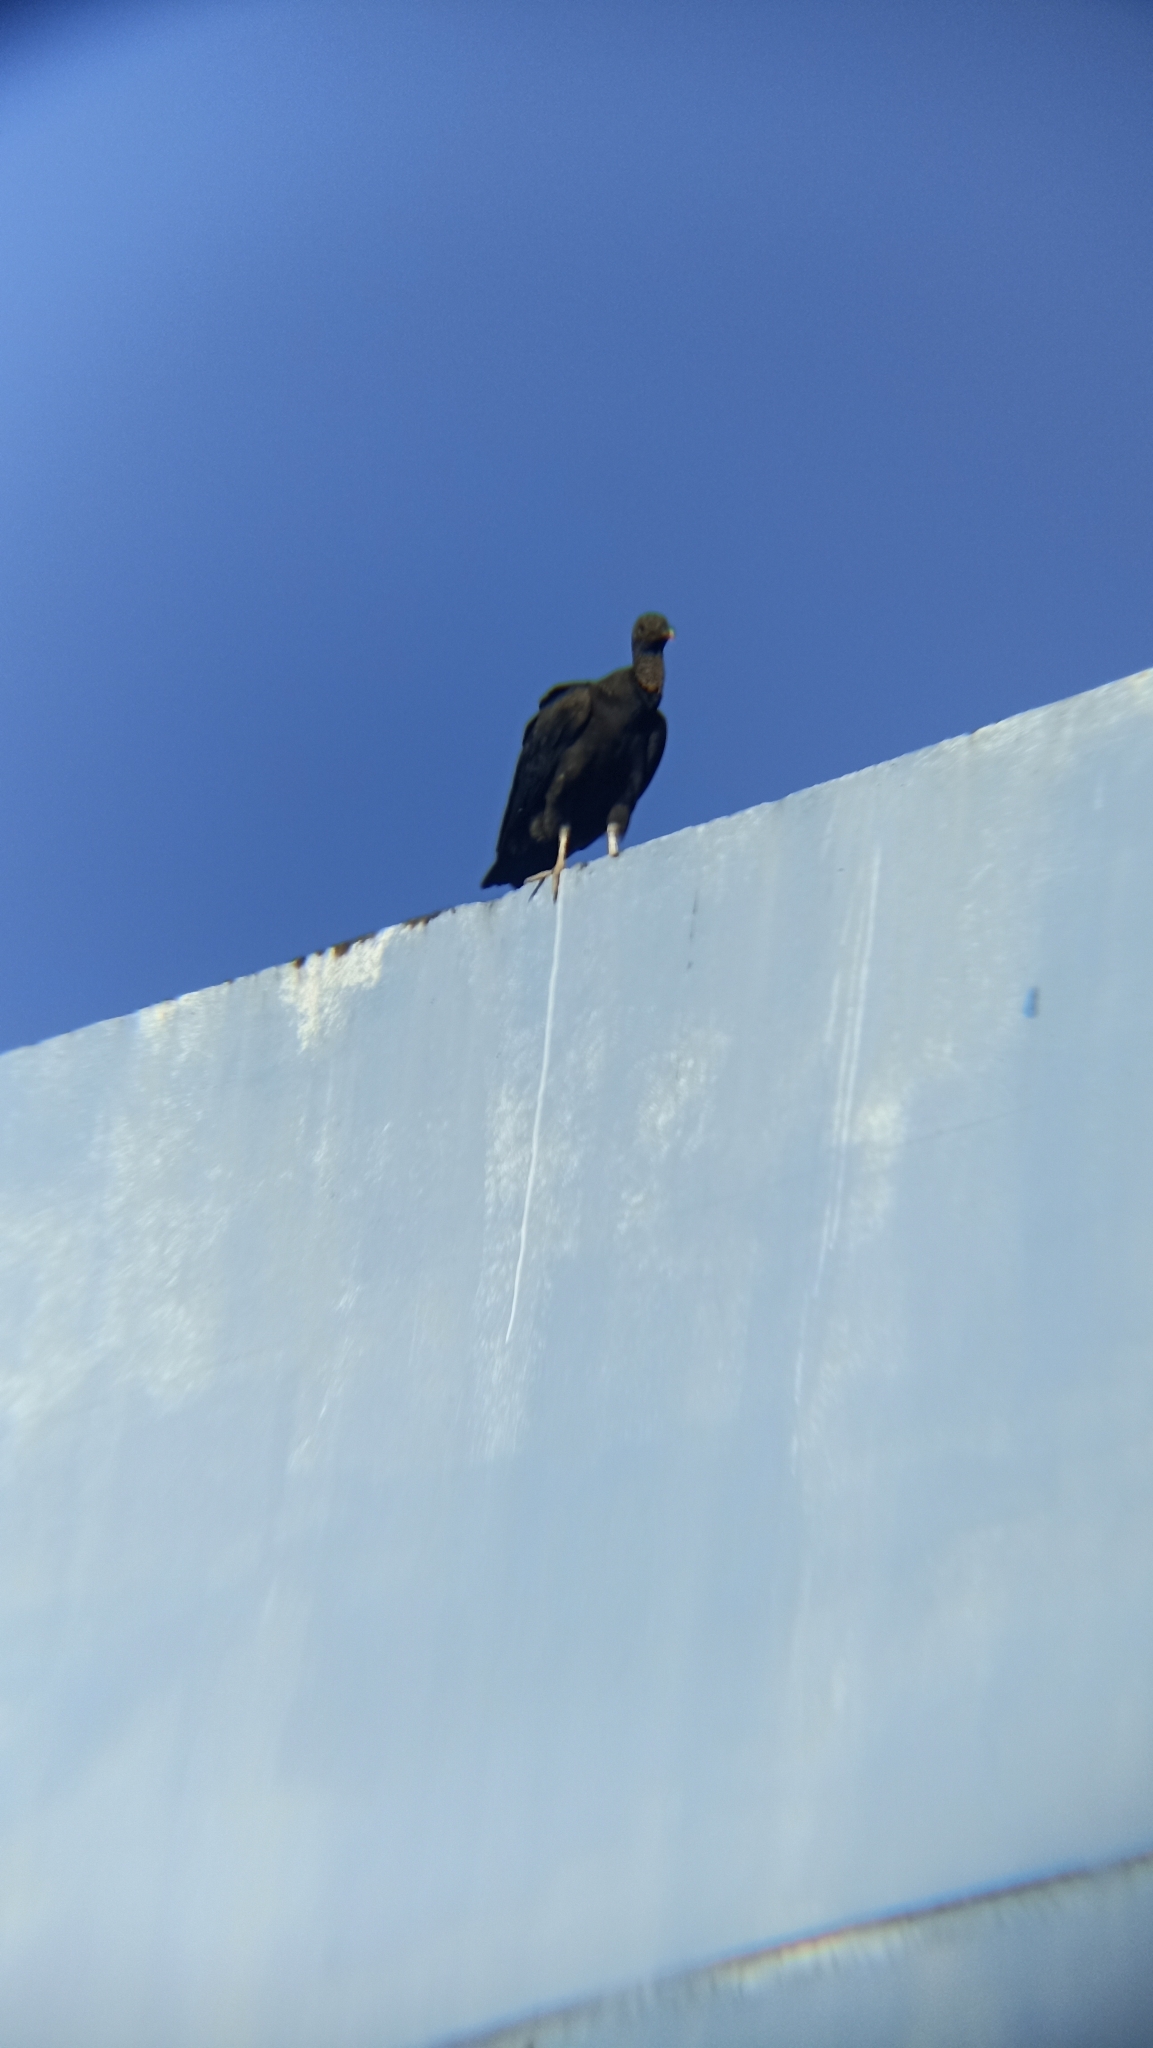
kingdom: Animalia
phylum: Chordata
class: Aves
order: Accipitriformes
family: Cathartidae
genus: Coragyps
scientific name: Coragyps atratus
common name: Black vulture
